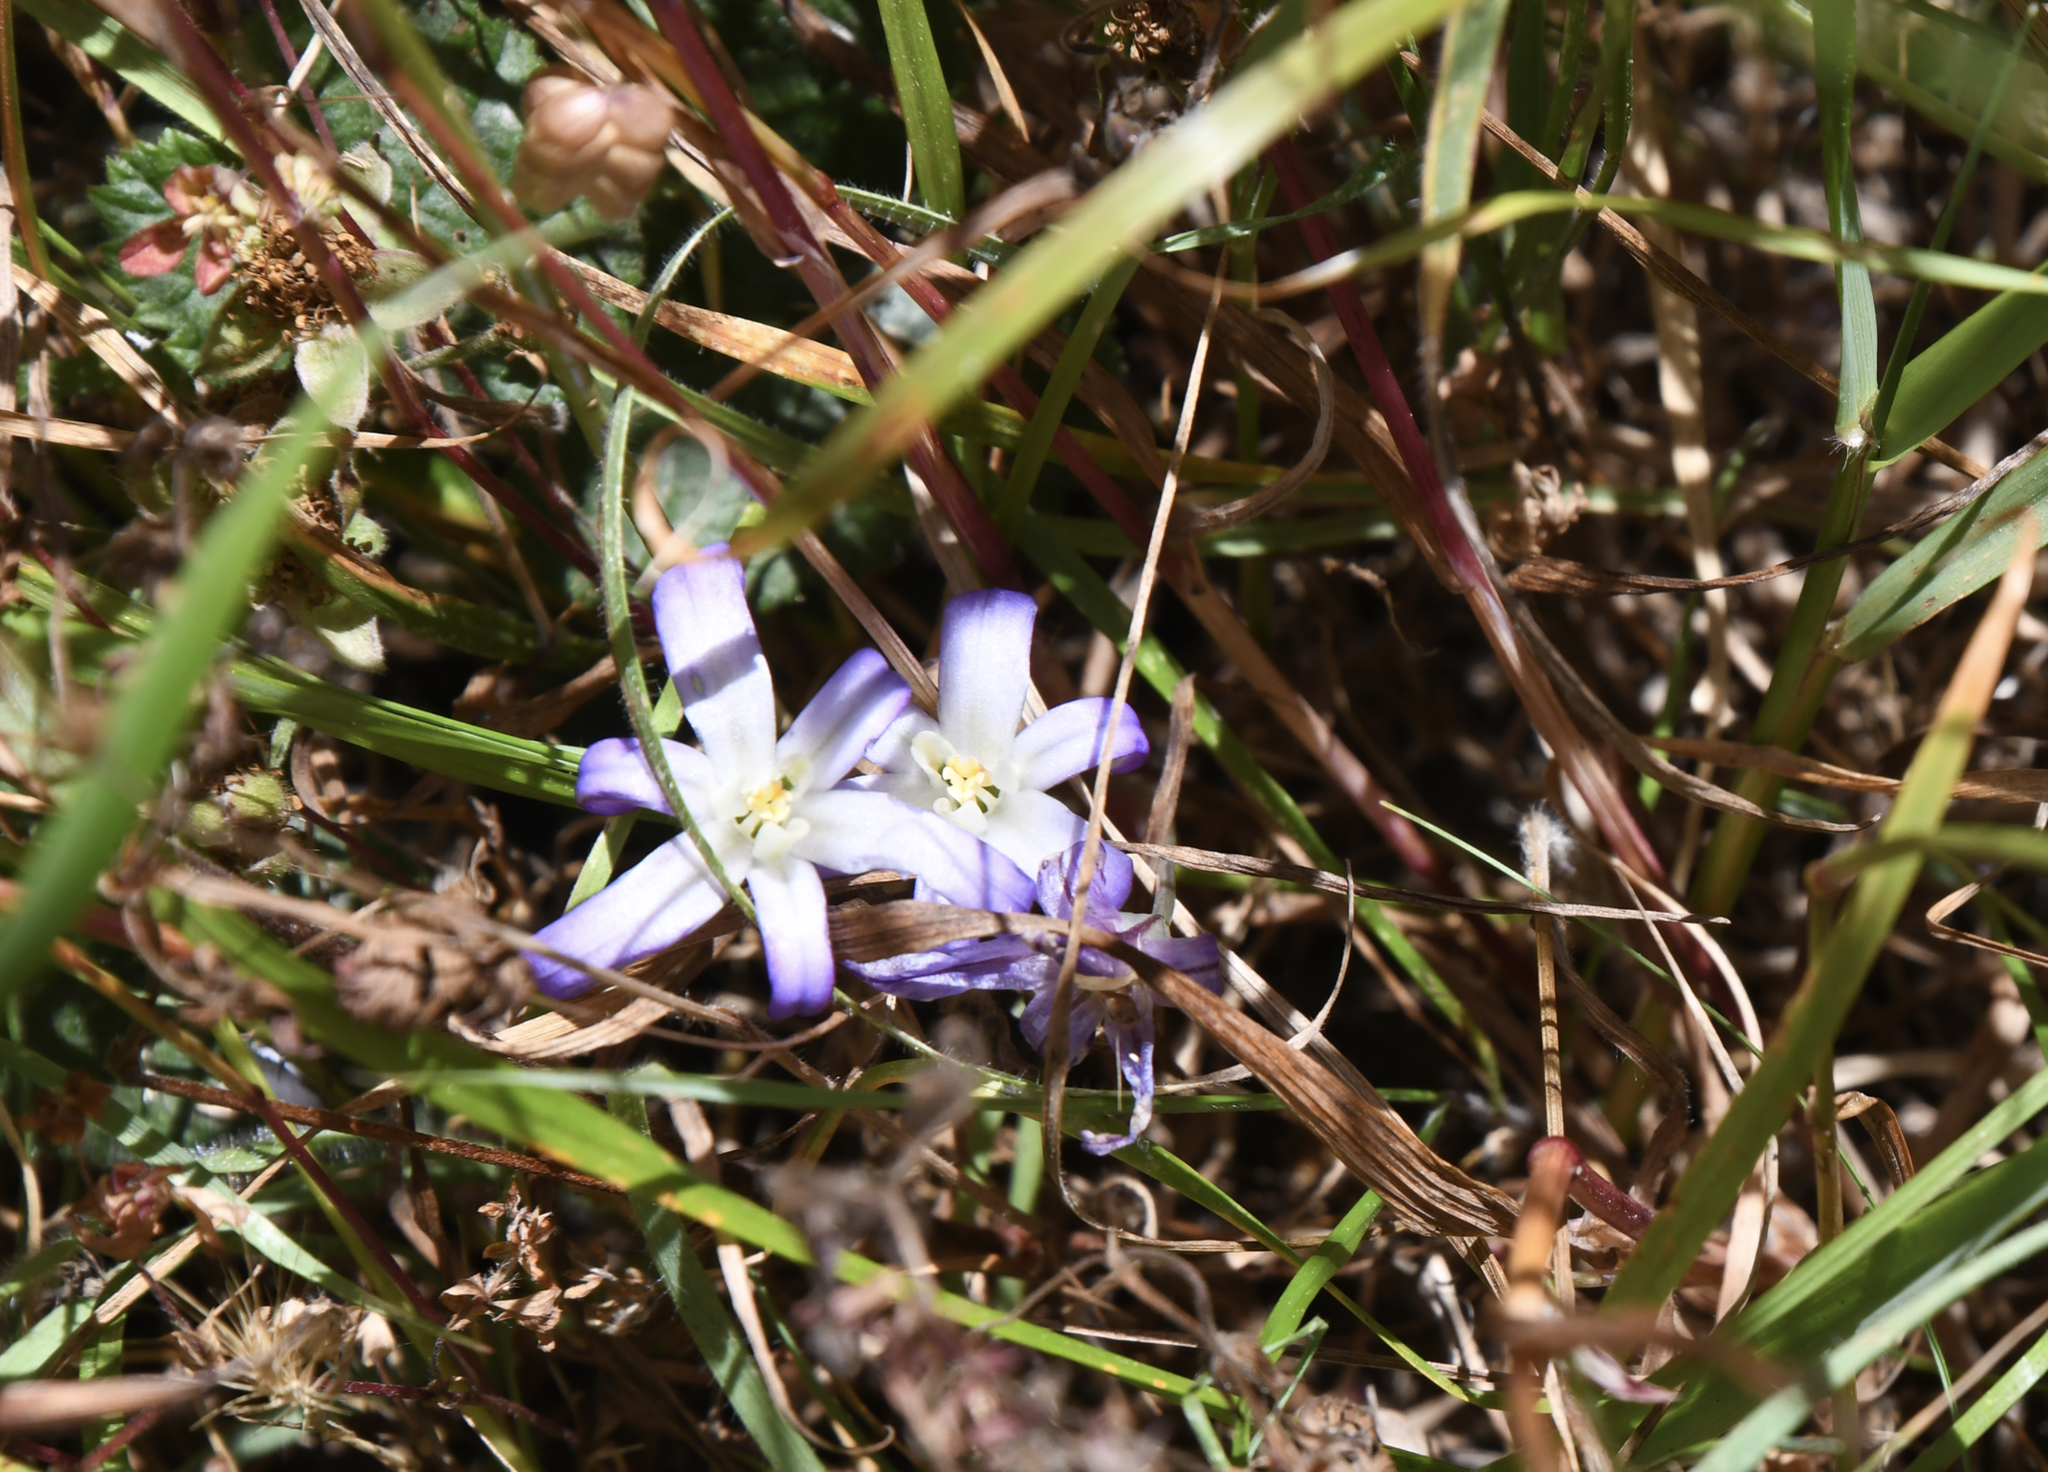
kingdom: Plantae
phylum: Tracheophyta
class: Liliopsida
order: Asparagales
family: Asparagaceae
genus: Brodiaea
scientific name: Brodiaea terrestris
